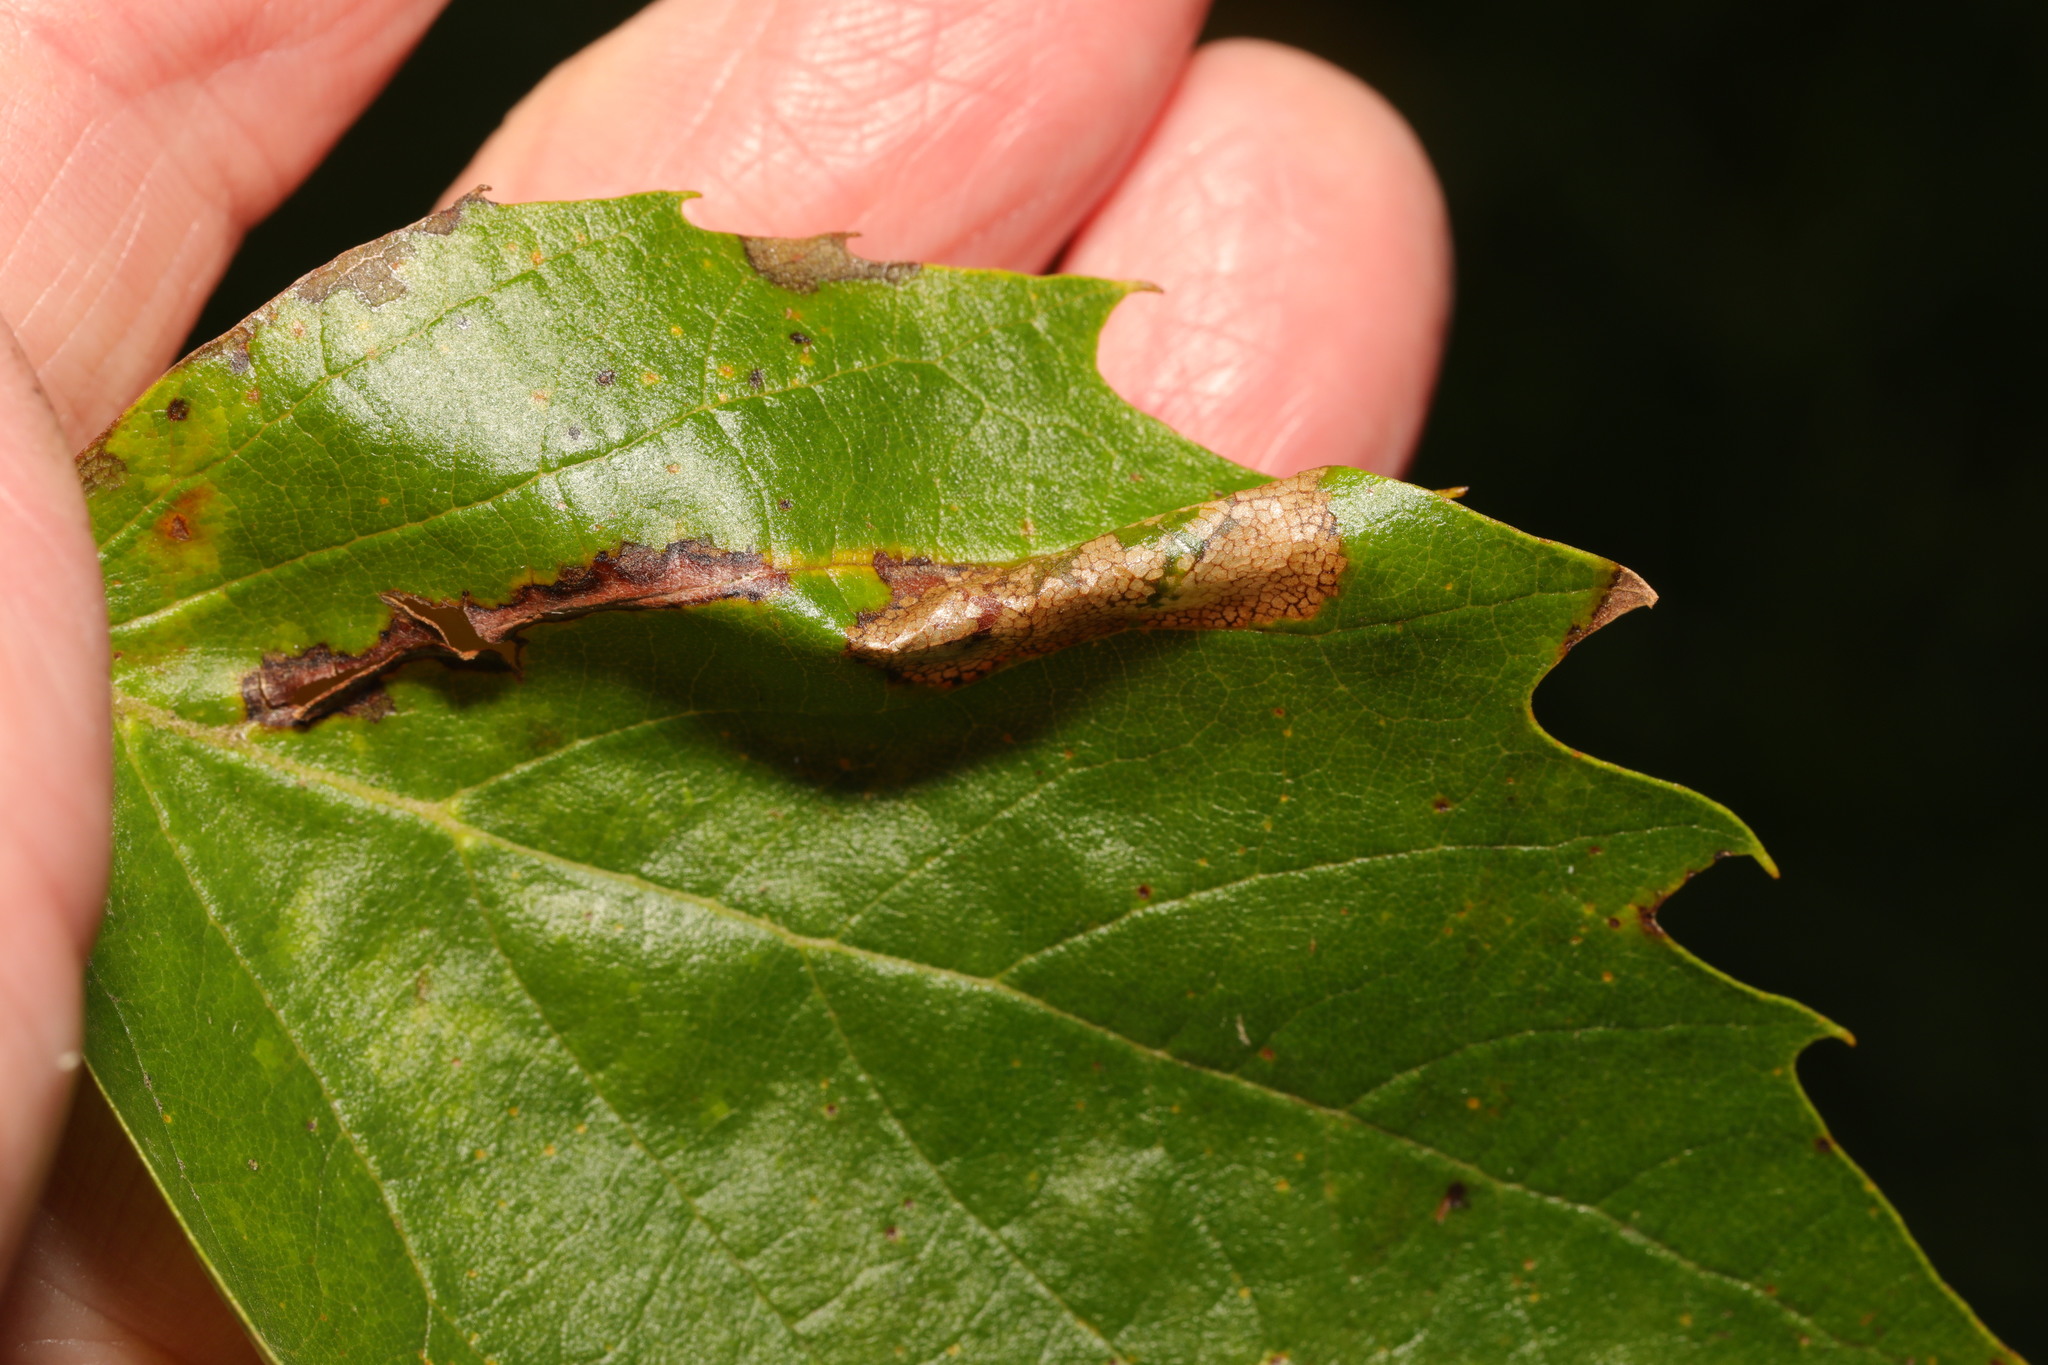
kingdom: Animalia
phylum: Arthropoda
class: Insecta
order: Lepidoptera
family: Gracillariidae
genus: Phyllonorycter
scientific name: Phyllonorycter platani
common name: London midget
